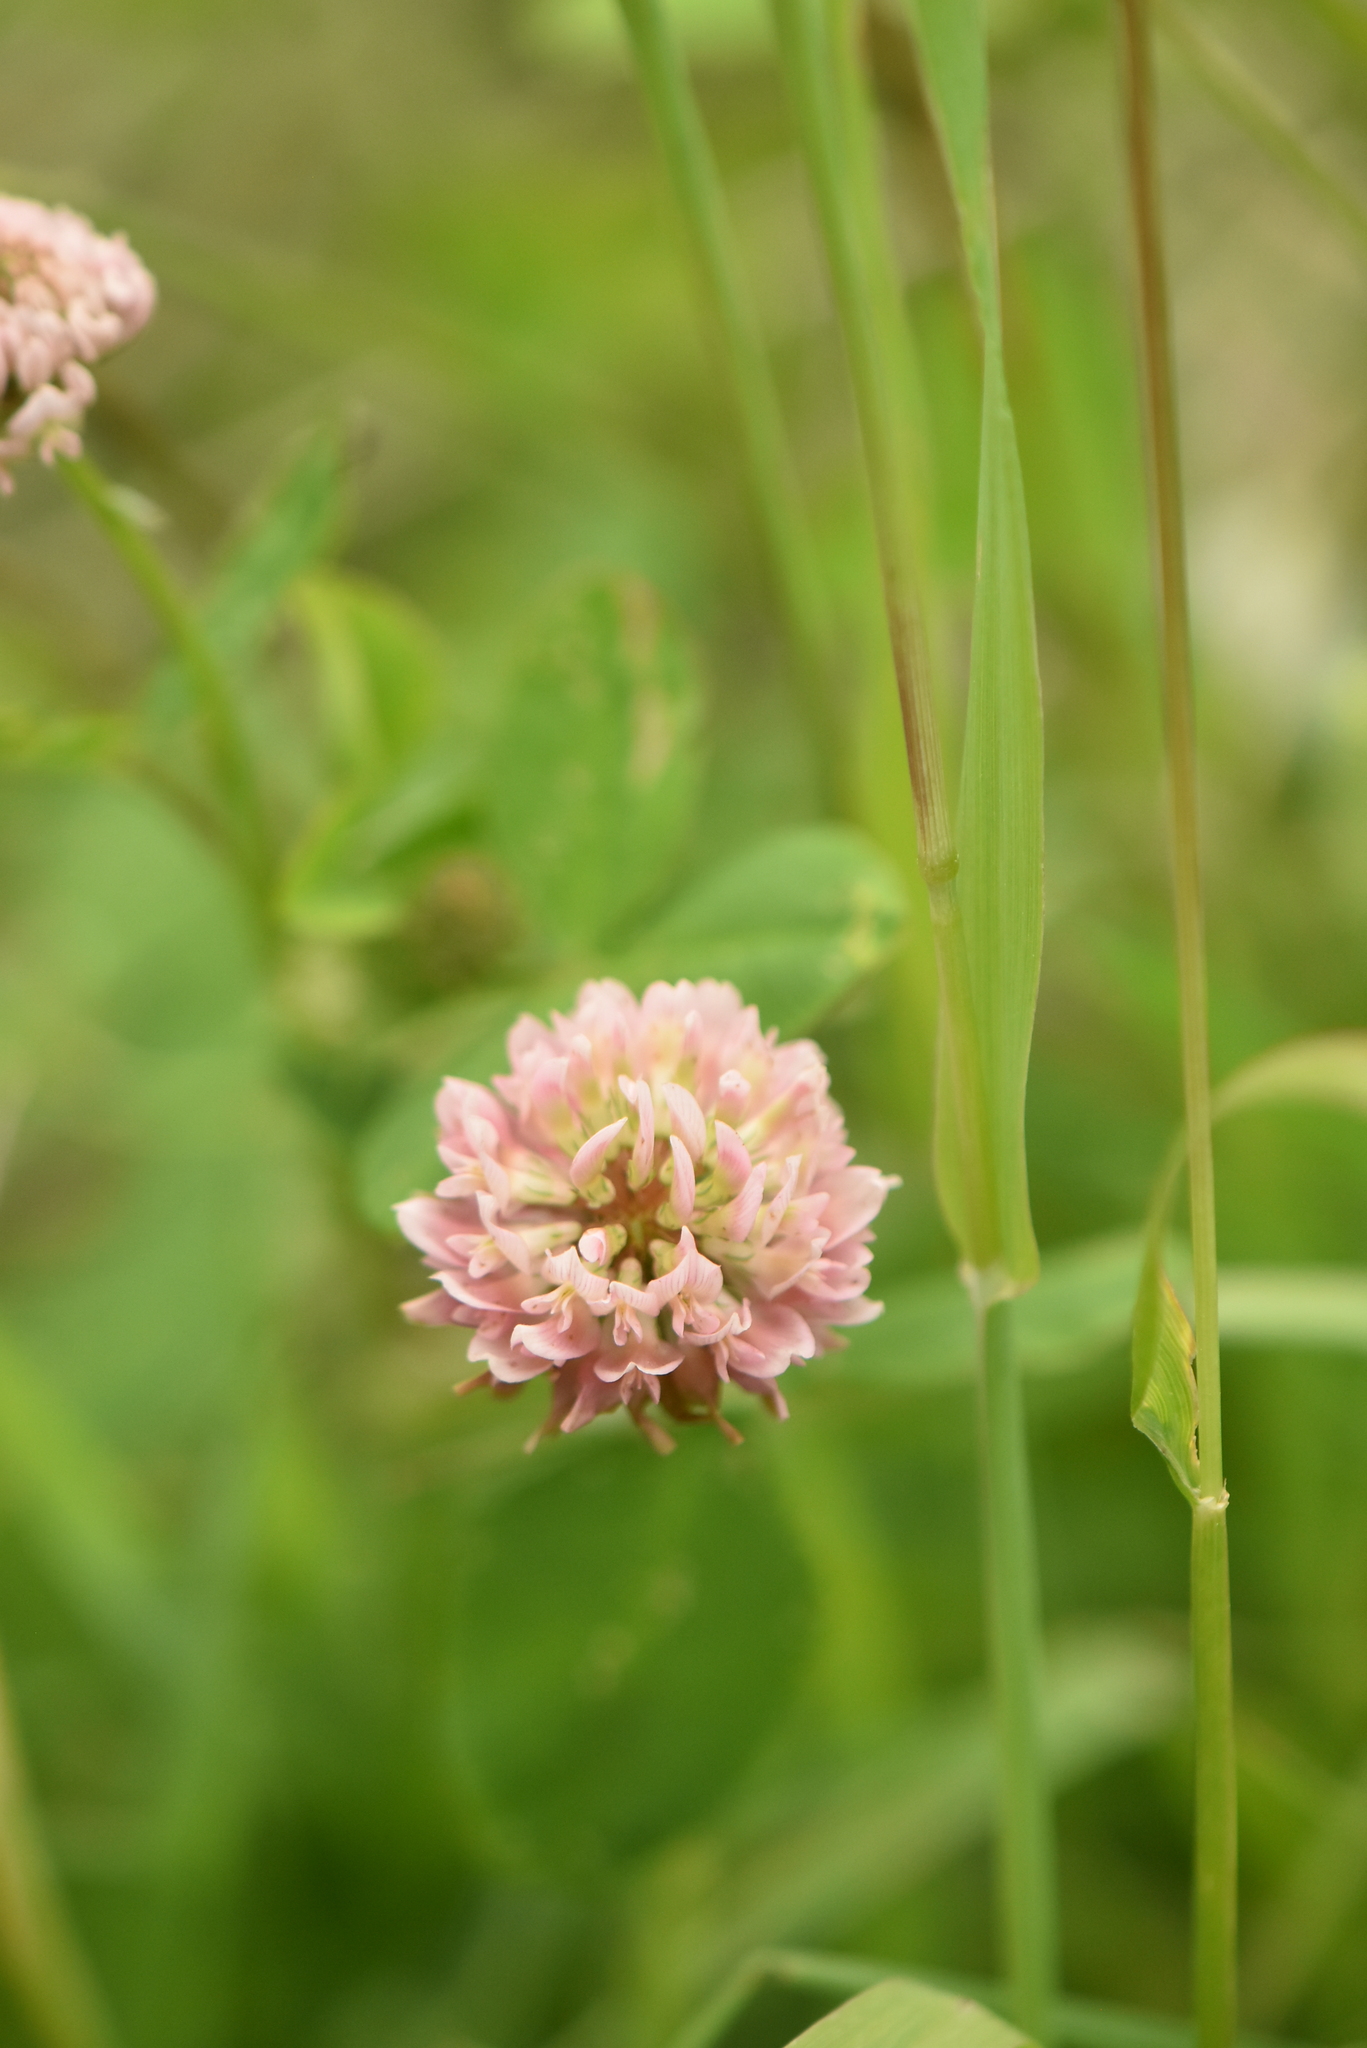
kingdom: Plantae
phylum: Tracheophyta
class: Magnoliopsida
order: Fabales
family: Fabaceae
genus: Trifolium
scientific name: Trifolium hybridum
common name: Alsike clover
